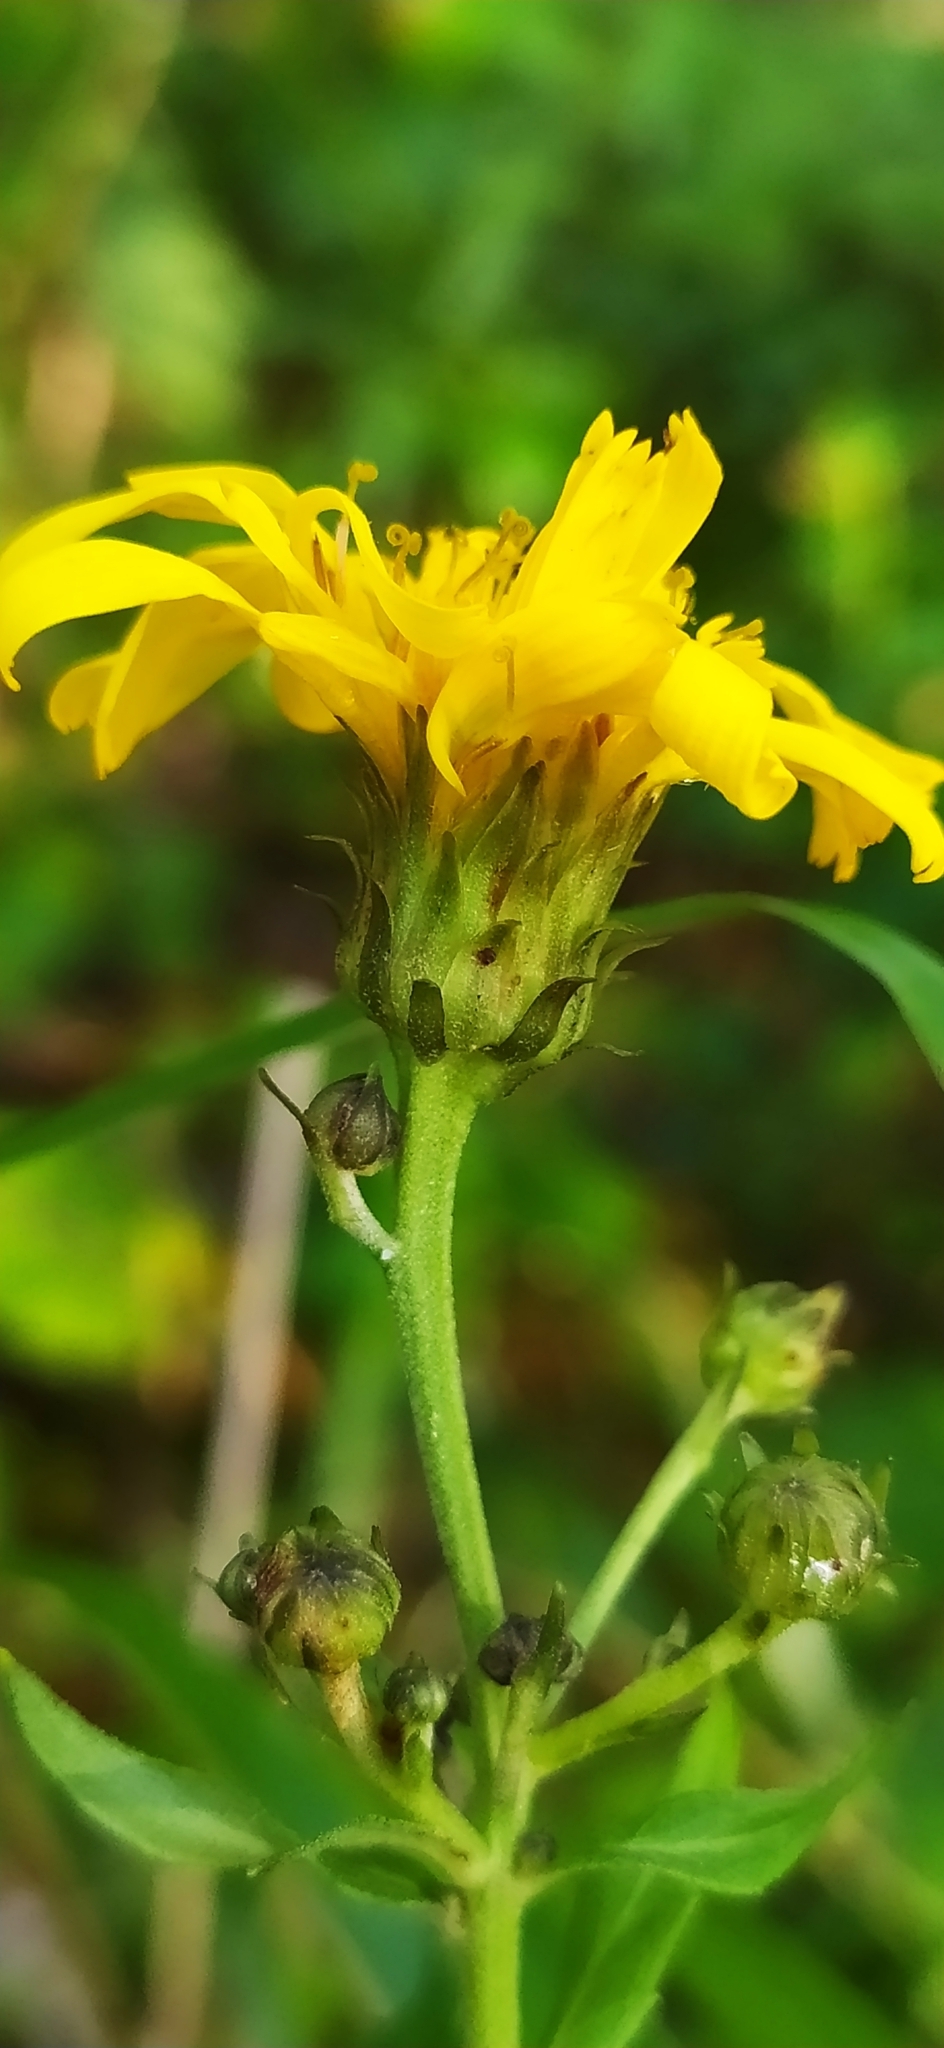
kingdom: Plantae
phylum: Tracheophyta
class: Magnoliopsida
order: Asterales
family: Asteraceae
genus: Hieracium
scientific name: Hieracium umbellatum
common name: Northern hawkweed
